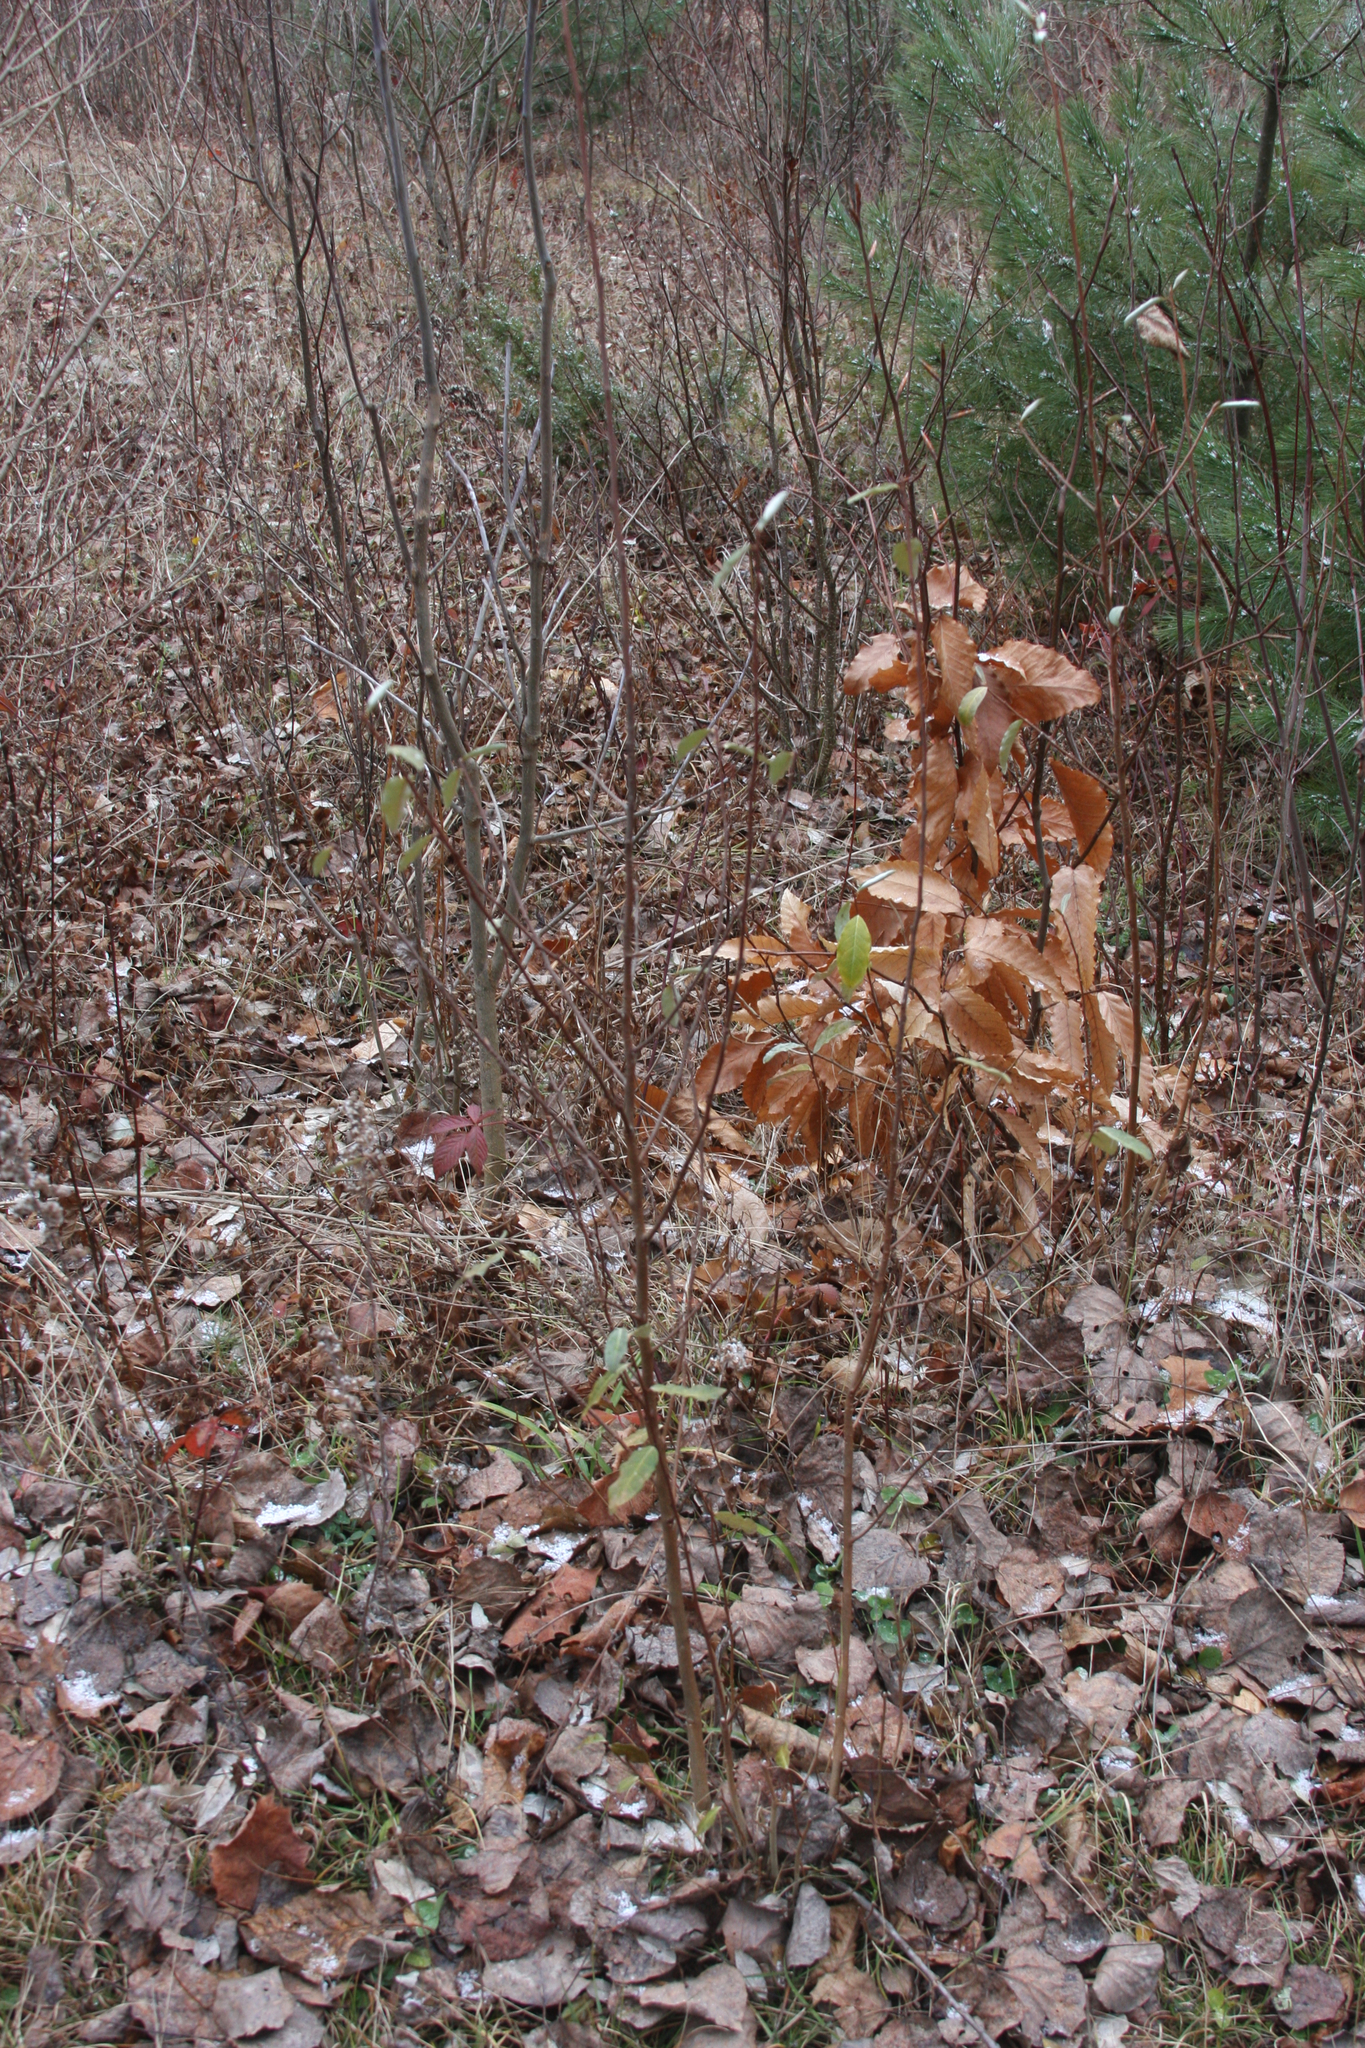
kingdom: Plantae
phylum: Tracheophyta
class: Magnoliopsida
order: Rosales
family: Elaeagnaceae
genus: Elaeagnus
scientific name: Elaeagnus umbellata
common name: Autumn olive
